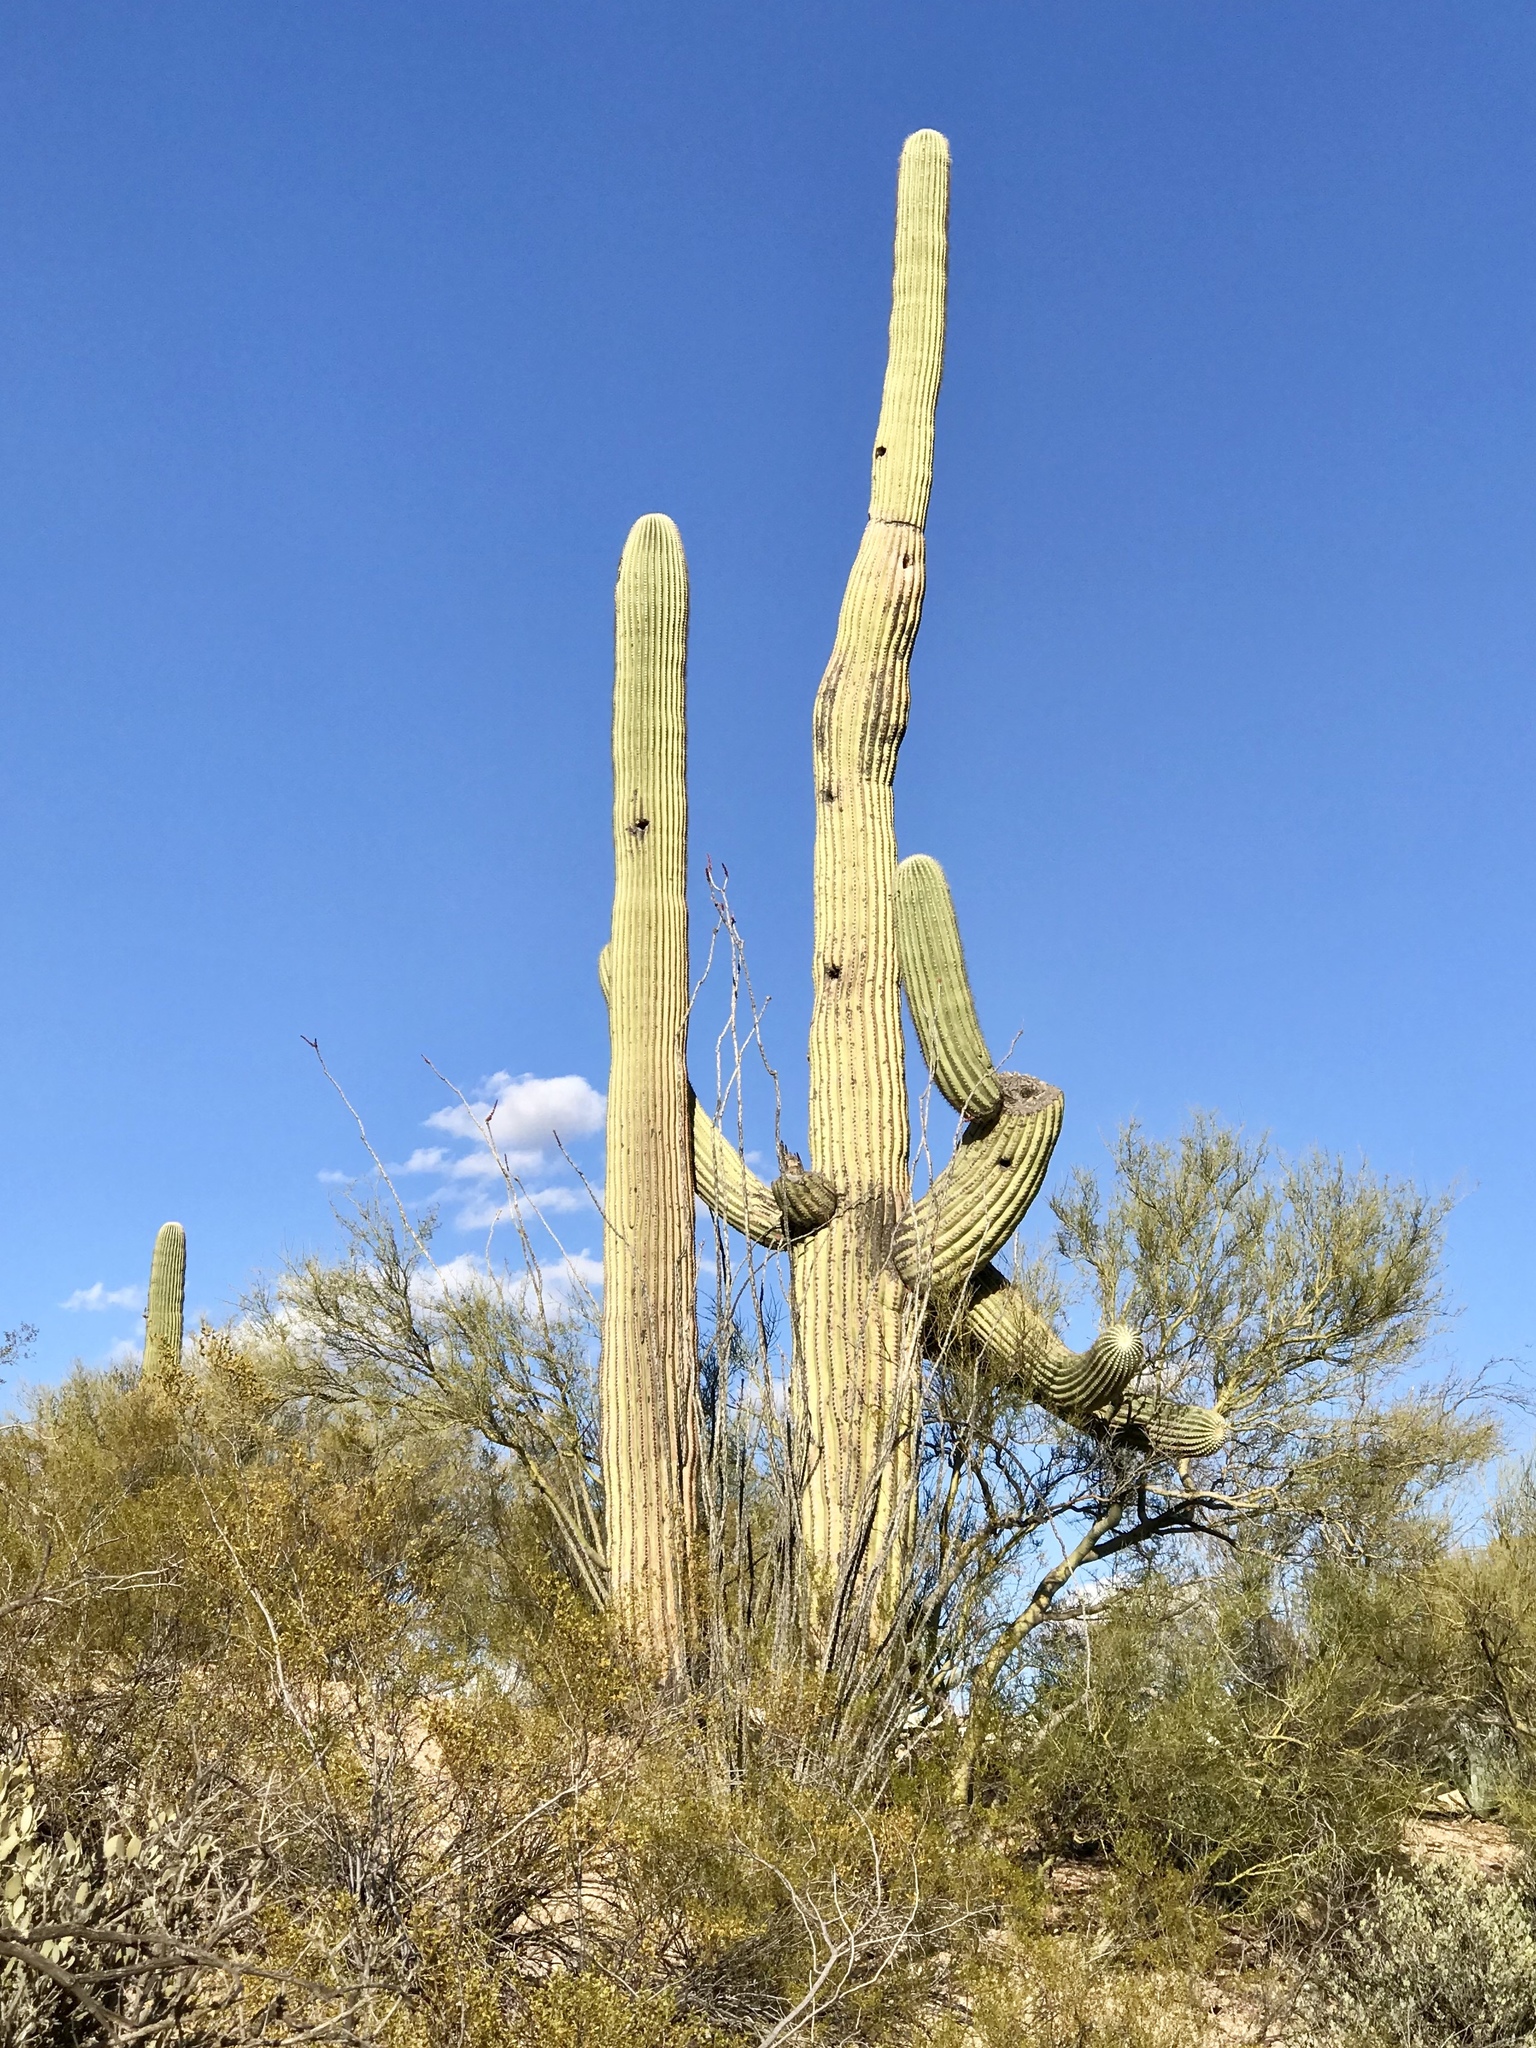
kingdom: Plantae
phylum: Tracheophyta
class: Magnoliopsida
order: Caryophyllales
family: Cactaceae
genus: Carnegiea
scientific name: Carnegiea gigantea
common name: Saguaro
